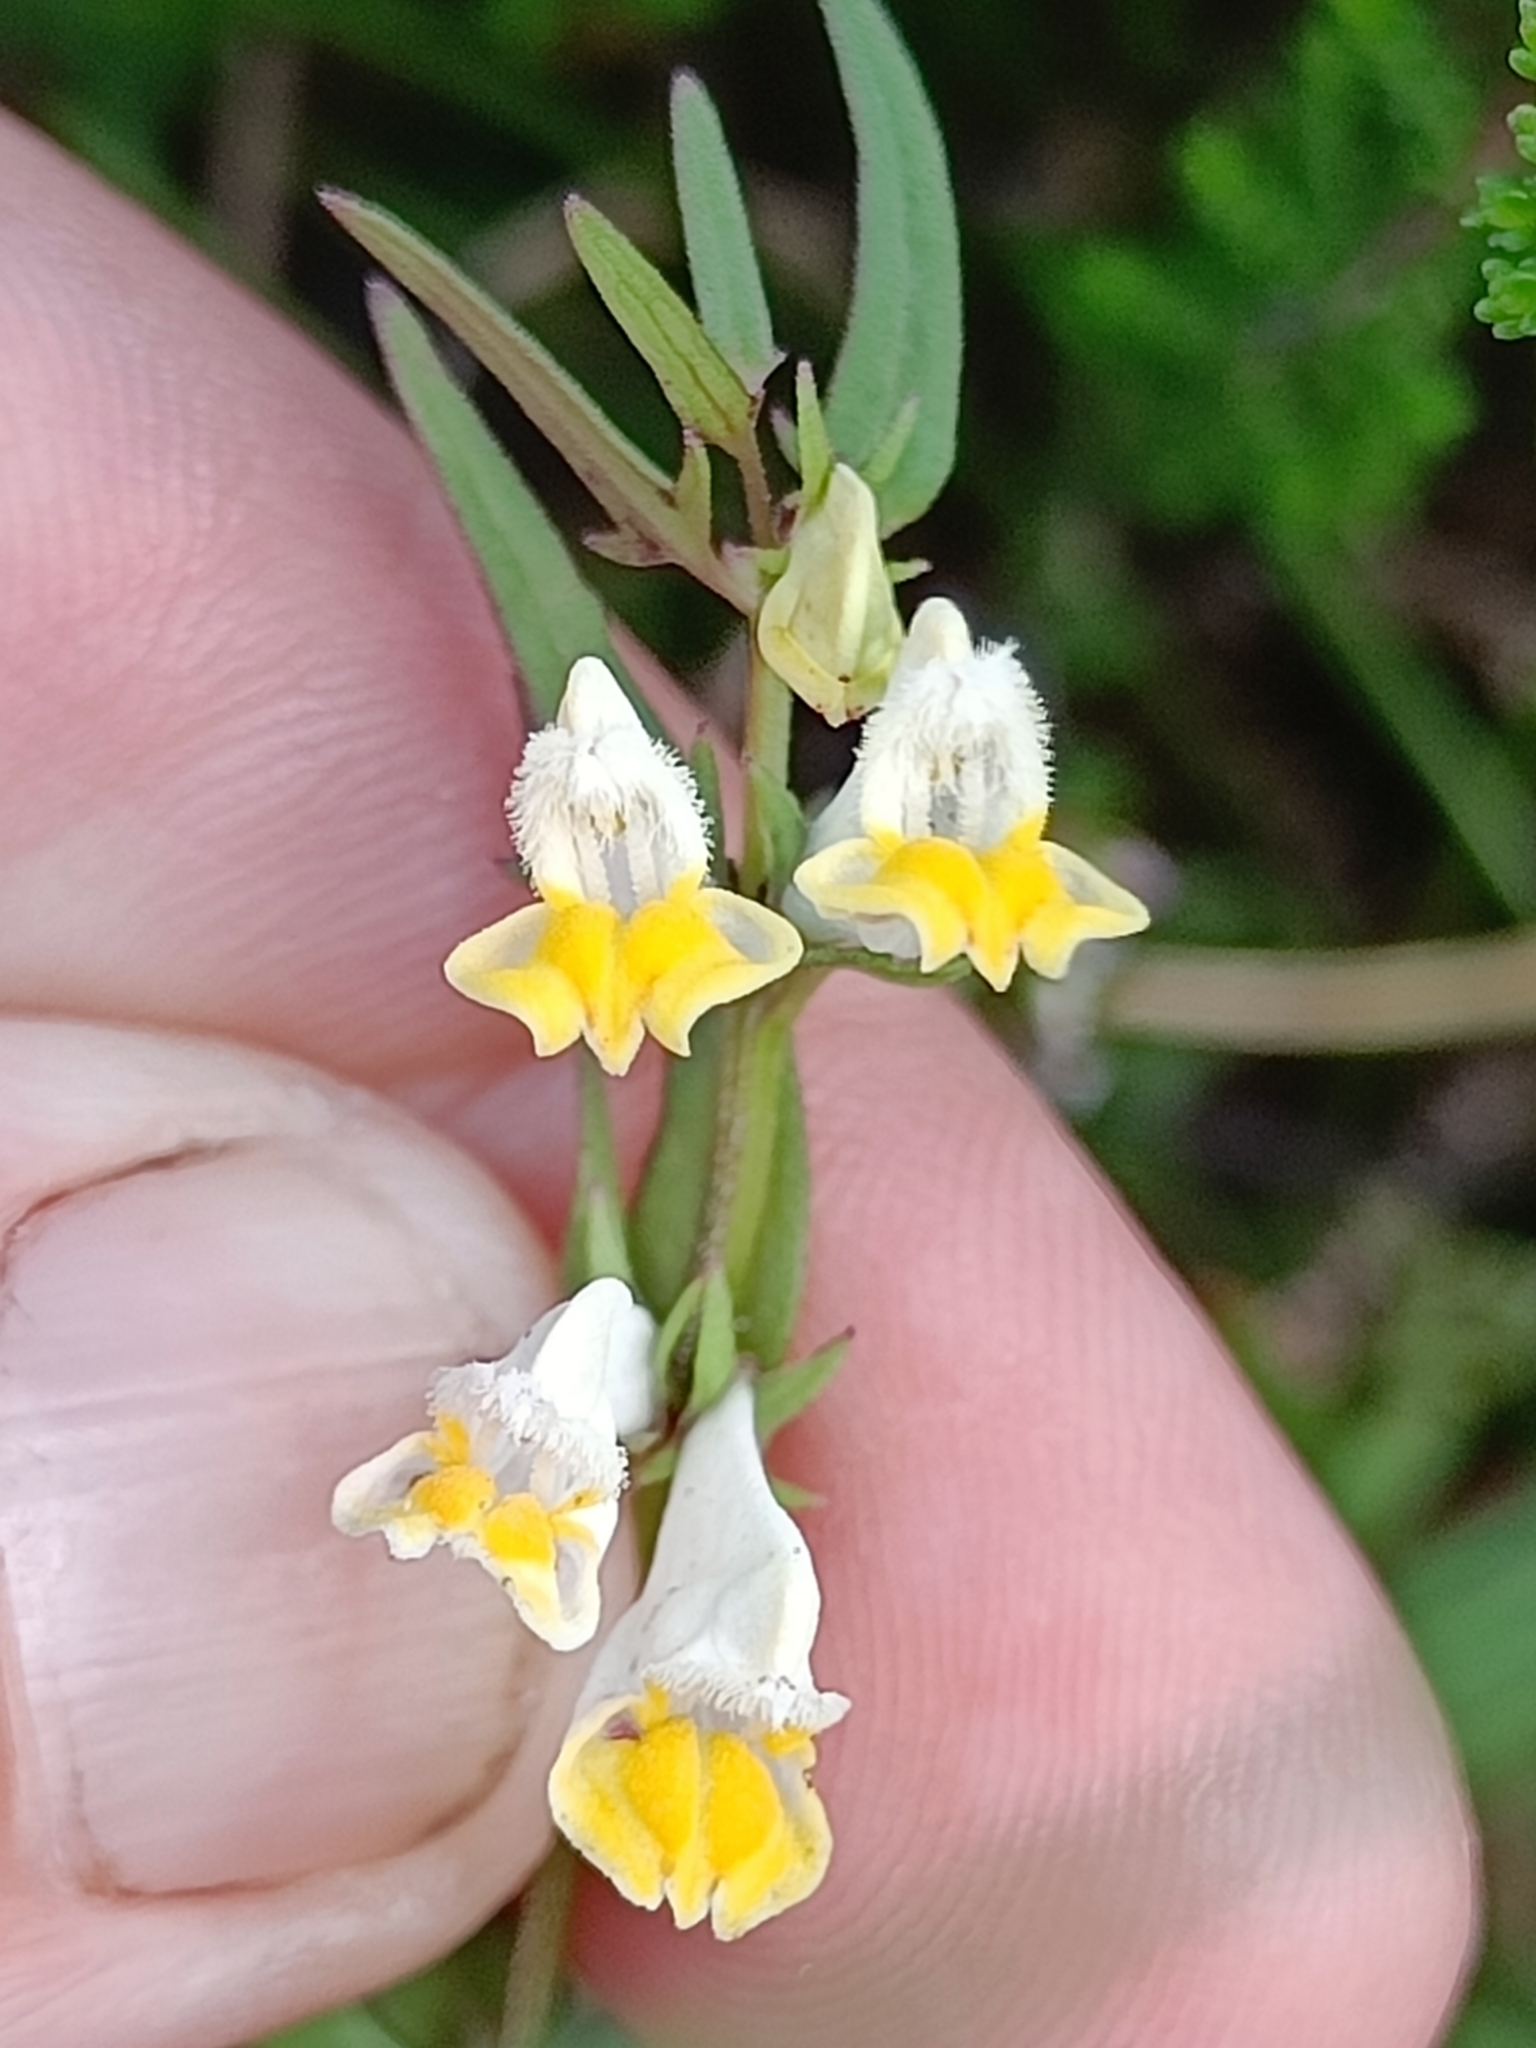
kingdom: Plantae
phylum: Tracheophyta
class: Magnoliopsida
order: Lamiales
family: Orobanchaceae
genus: Melampyrum
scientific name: Melampyrum pratense
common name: Common cow-wheat
